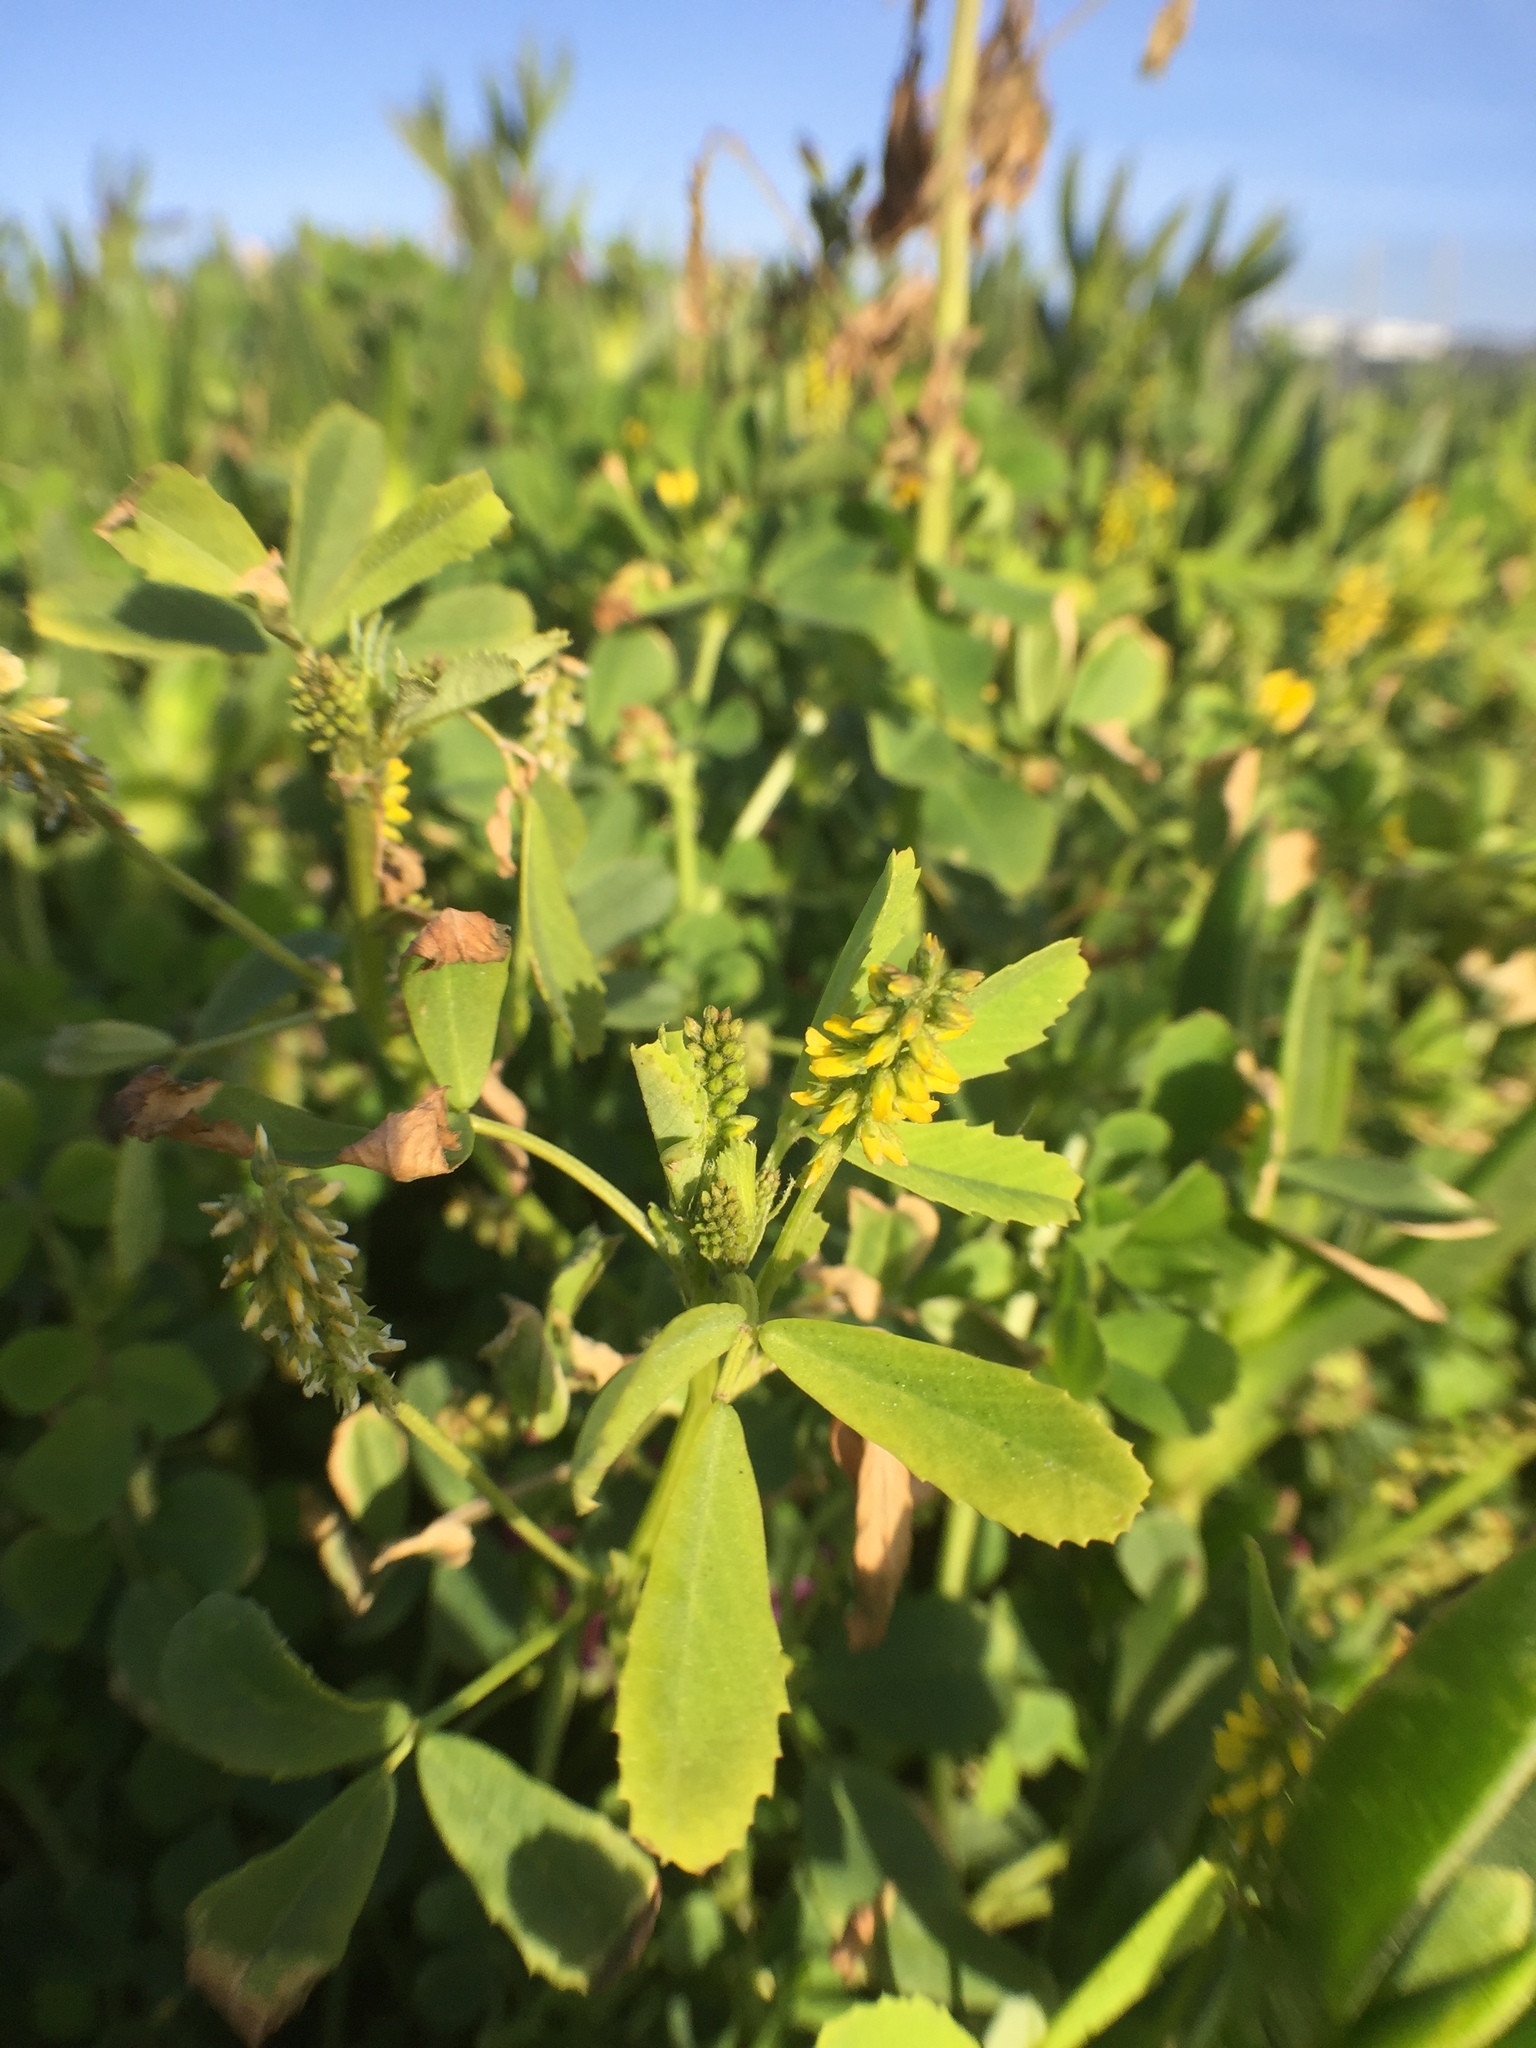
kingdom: Plantae
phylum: Tracheophyta
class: Magnoliopsida
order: Fabales
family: Fabaceae
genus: Melilotus
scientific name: Melilotus indicus
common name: Small melilot
